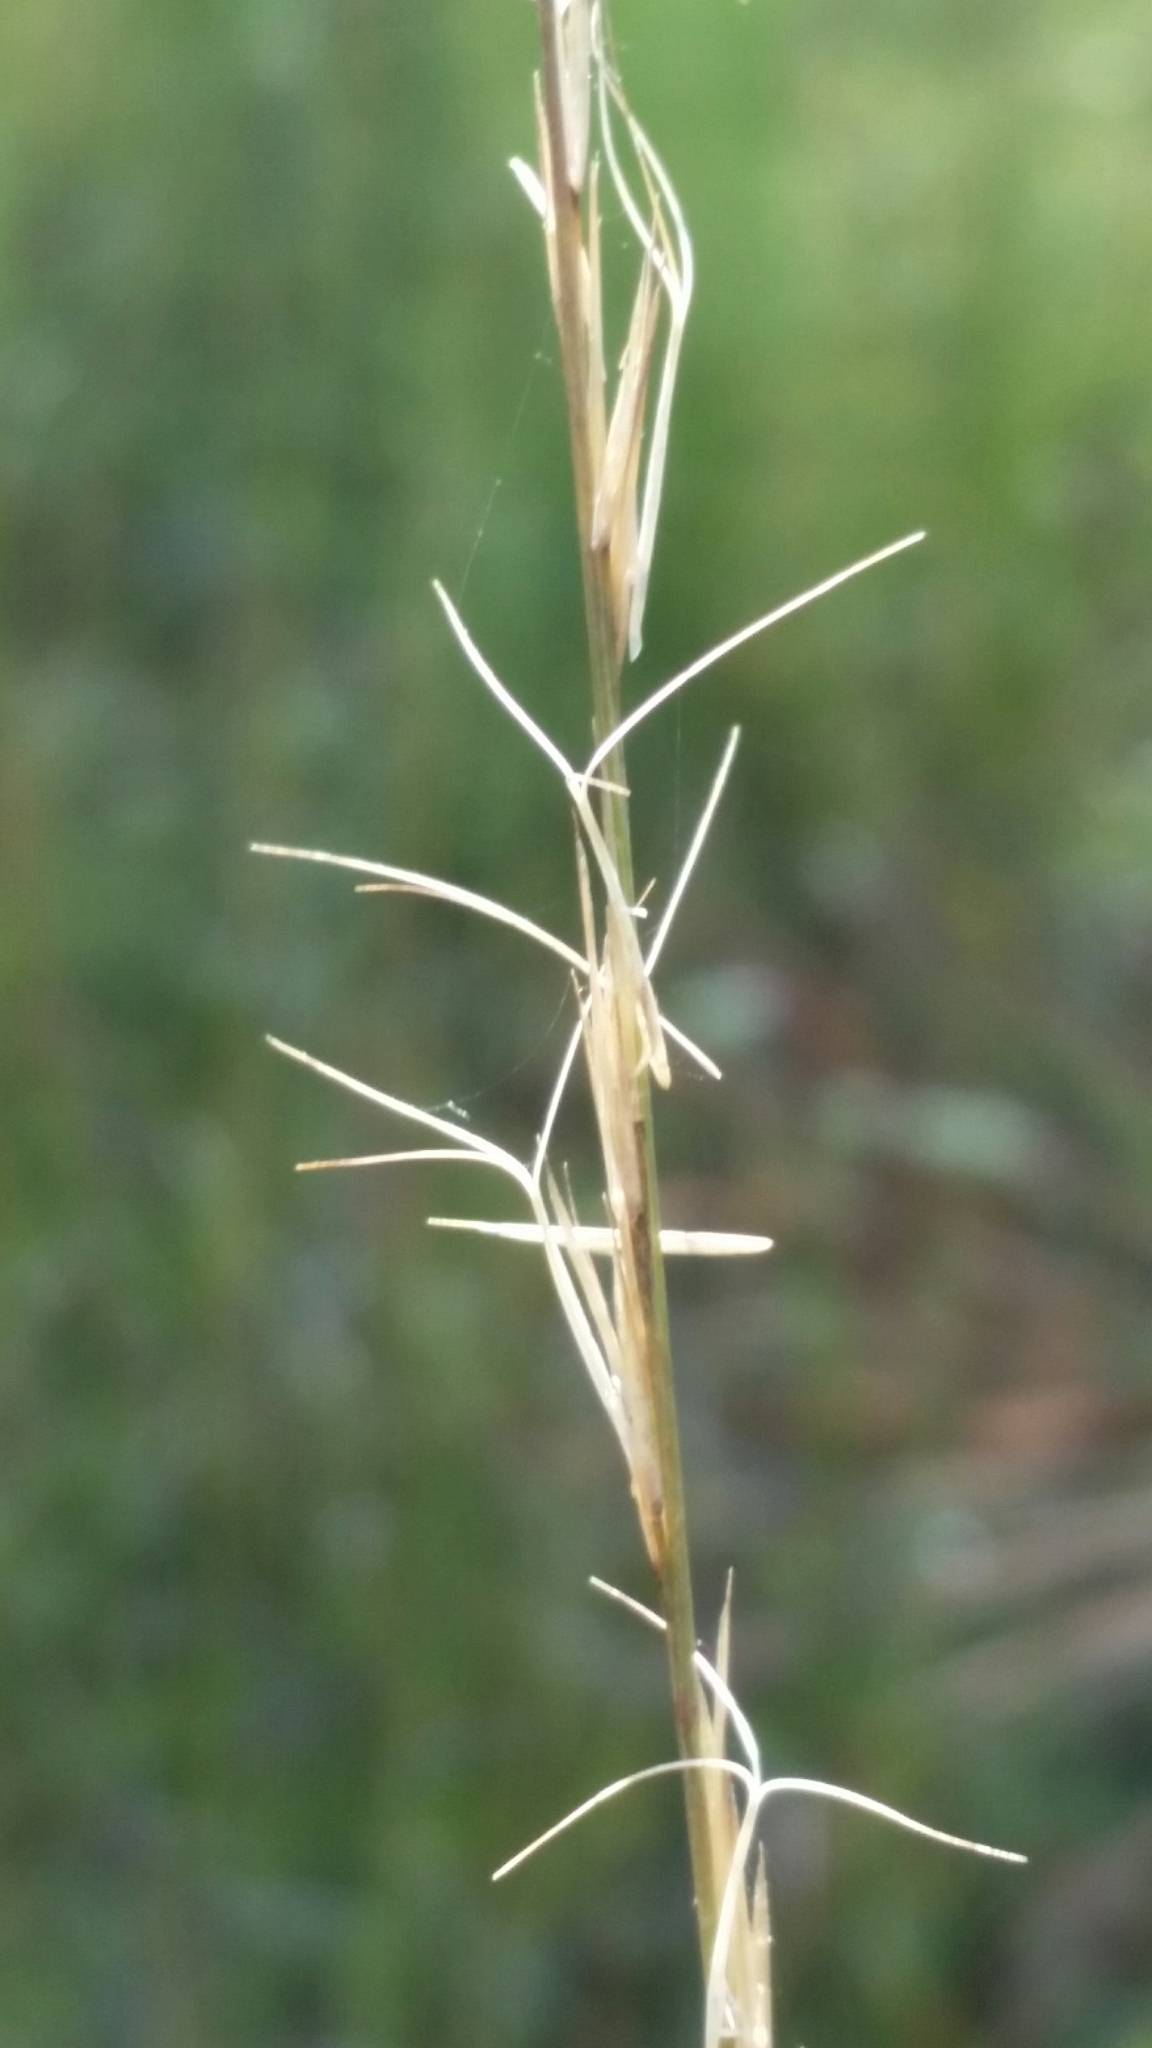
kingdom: Plantae
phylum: Tracheophyta
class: Liliopsida
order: Poales
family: Poaceae
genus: Aristida
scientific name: Aristida beyrichiana
